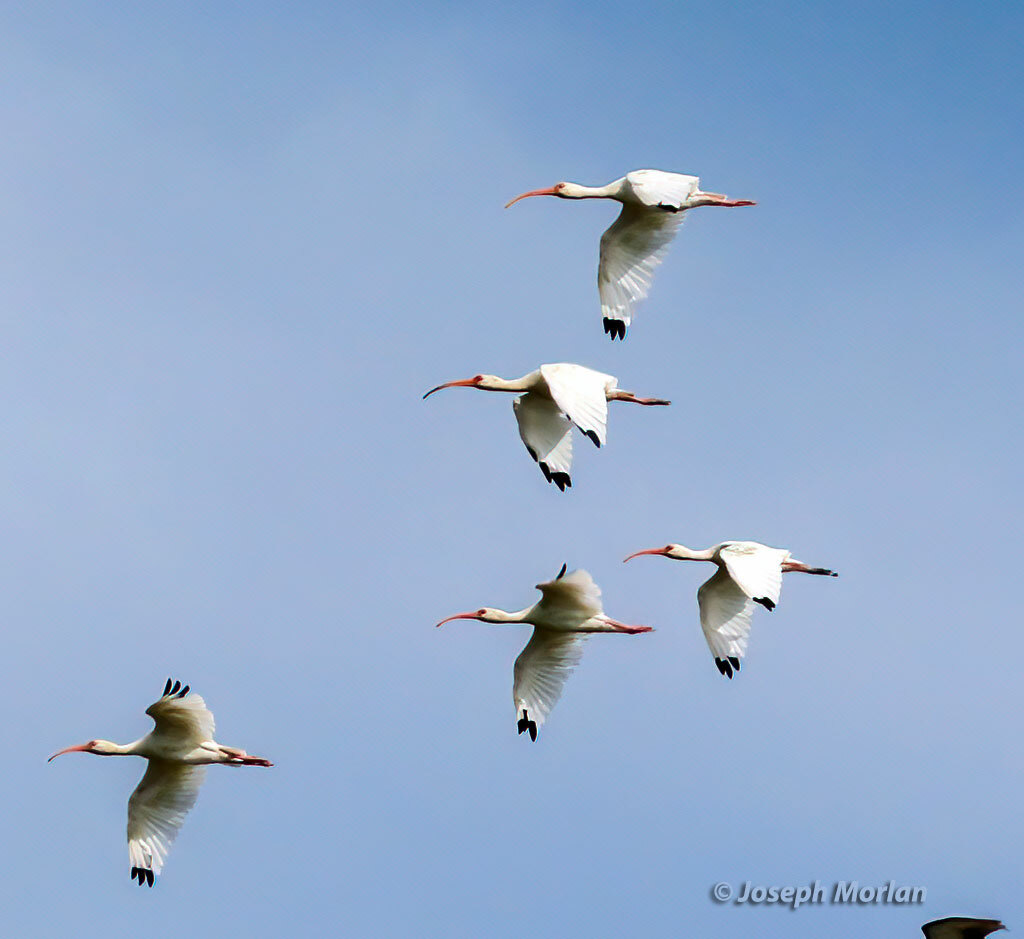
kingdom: Animalia
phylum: Chordata
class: Aves
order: Pelecaniformes
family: Threskiornithidae
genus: Eudocimus
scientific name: Eudocimus albus
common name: White ibis
